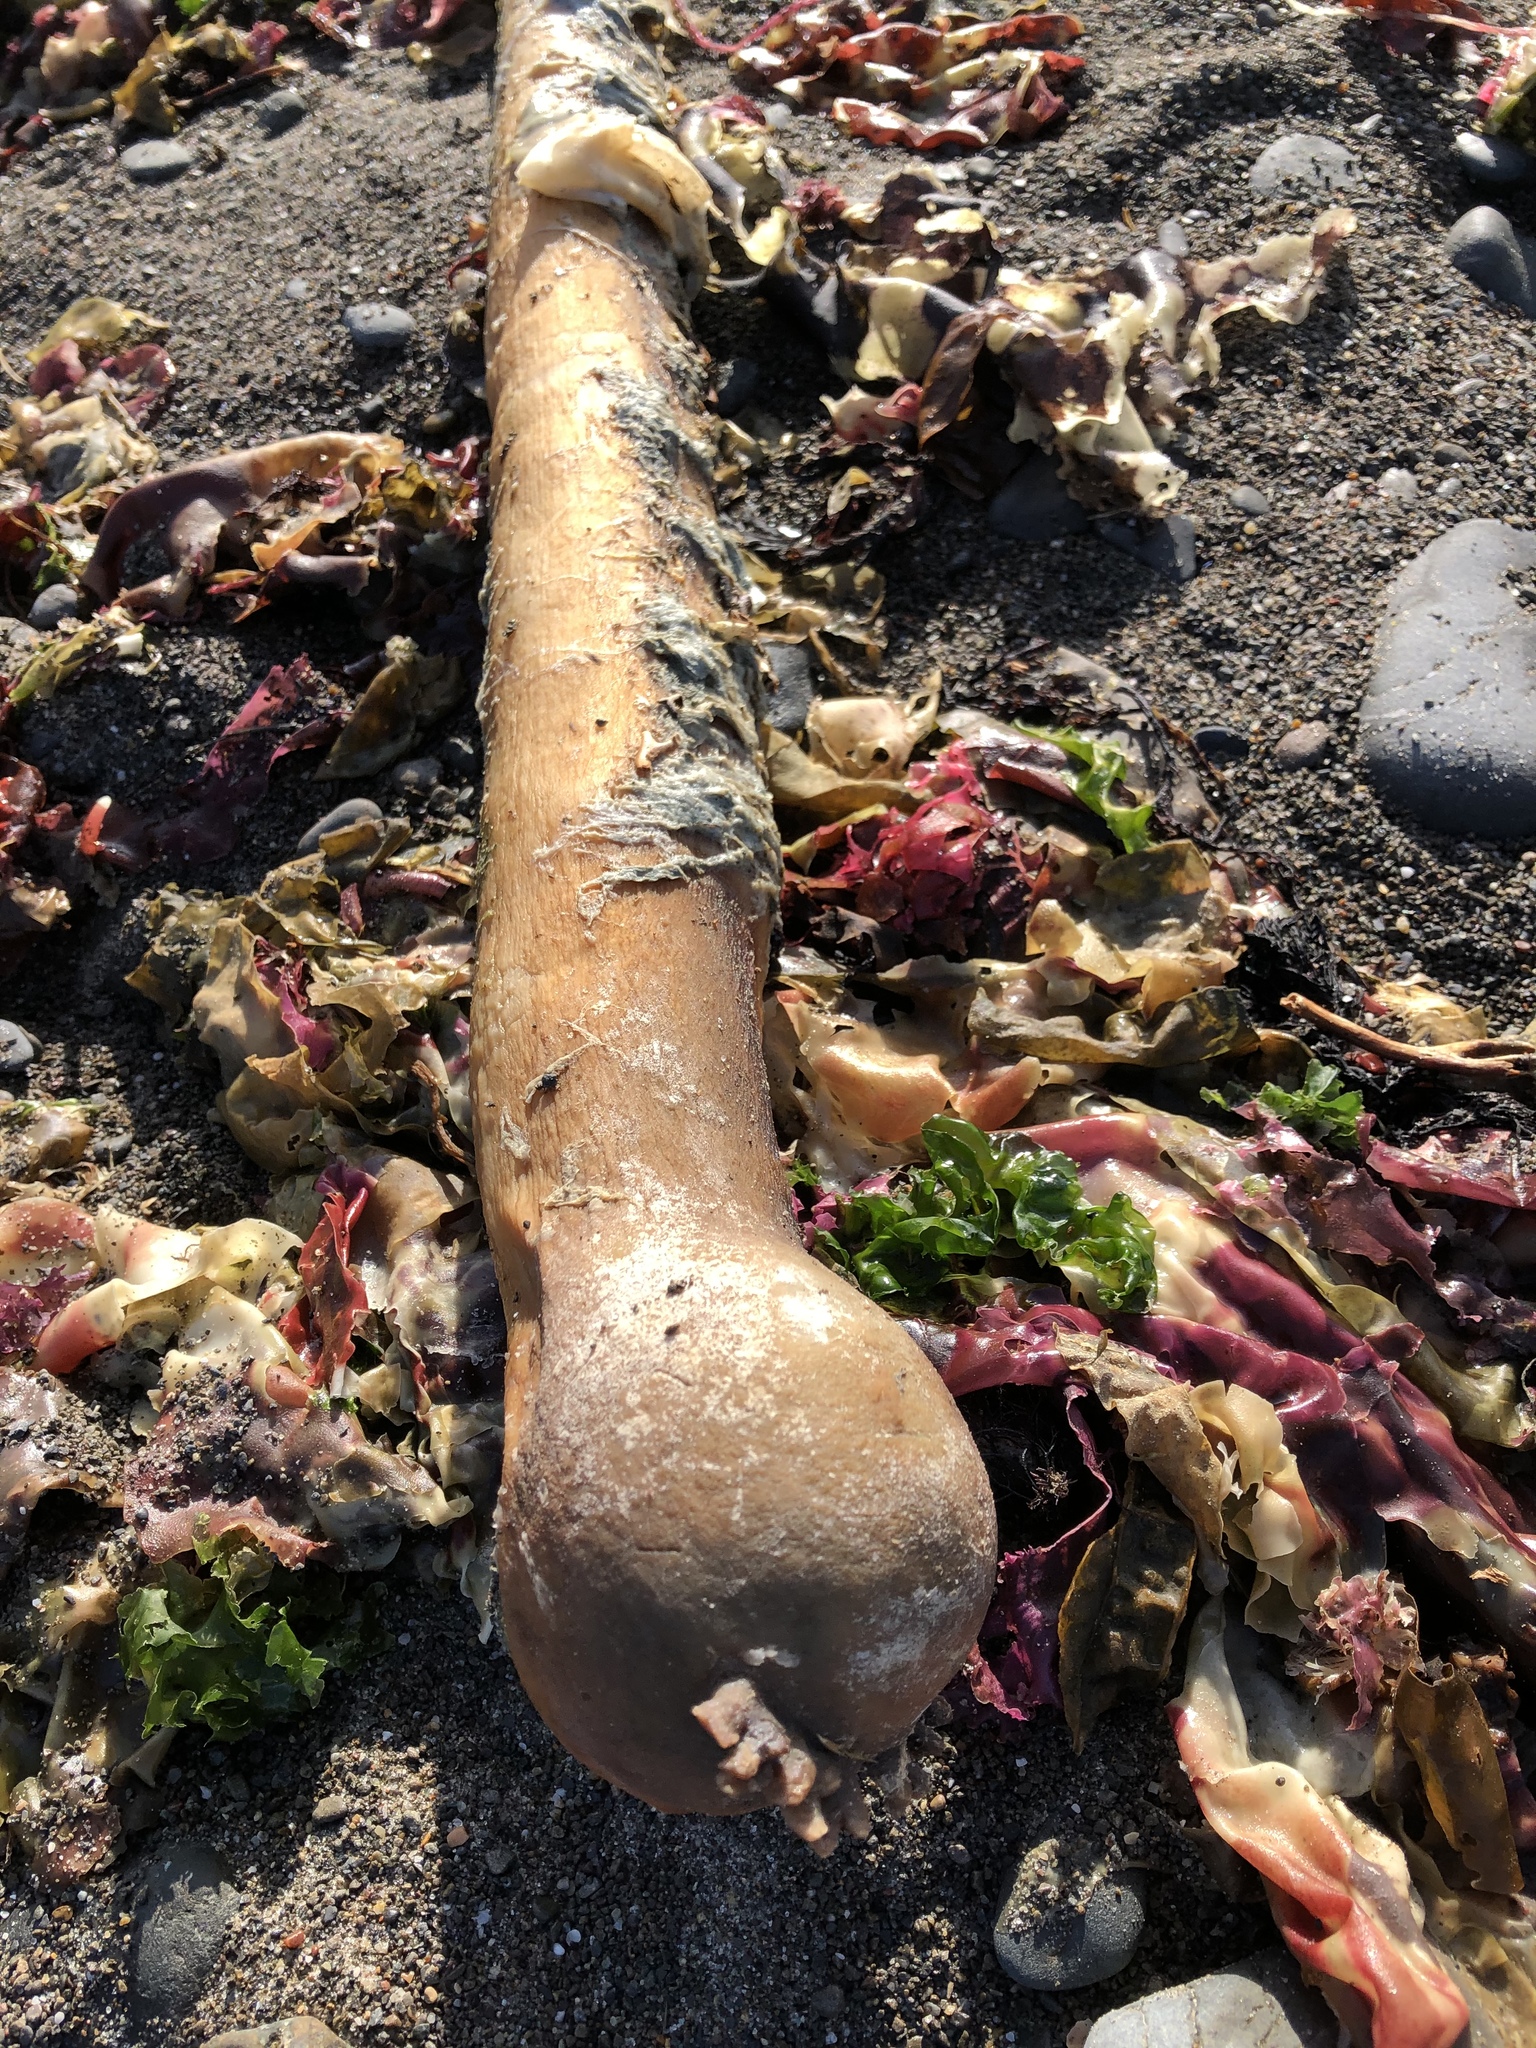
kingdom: Chromista
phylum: Ochrophyta
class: Phaeophyceae
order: Laminariales
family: Laminariaceae
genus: Nereocystis
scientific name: Nereocystis luetkeana
